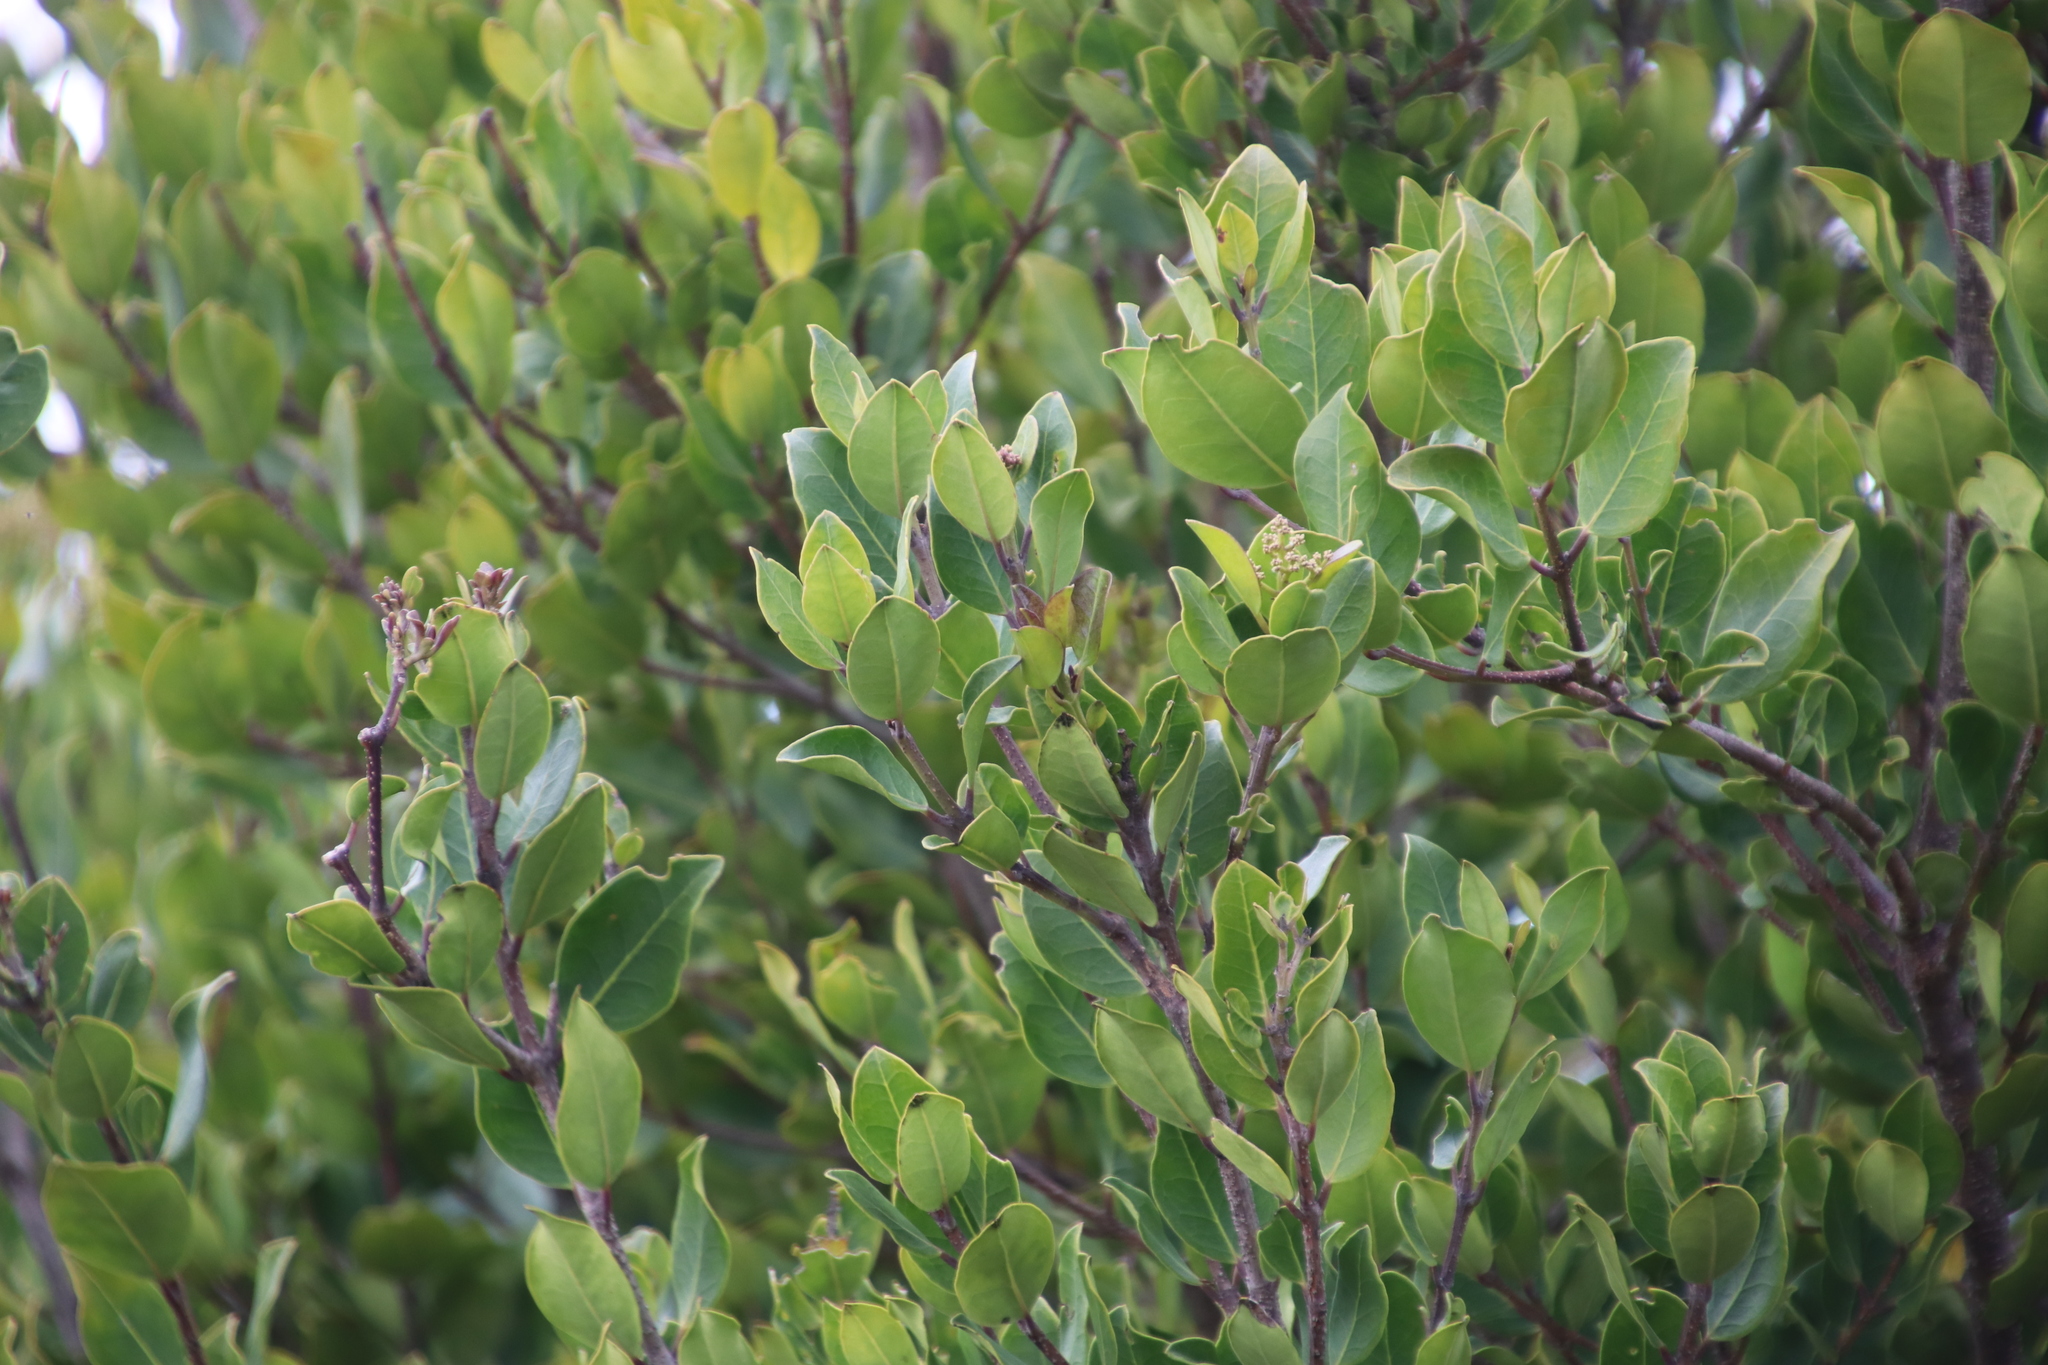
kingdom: Plantae
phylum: Tracheophyta
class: Magnoliopsida
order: Lamiales
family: Oleaceae
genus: Olea
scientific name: Olea capensis
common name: Black ironwood
